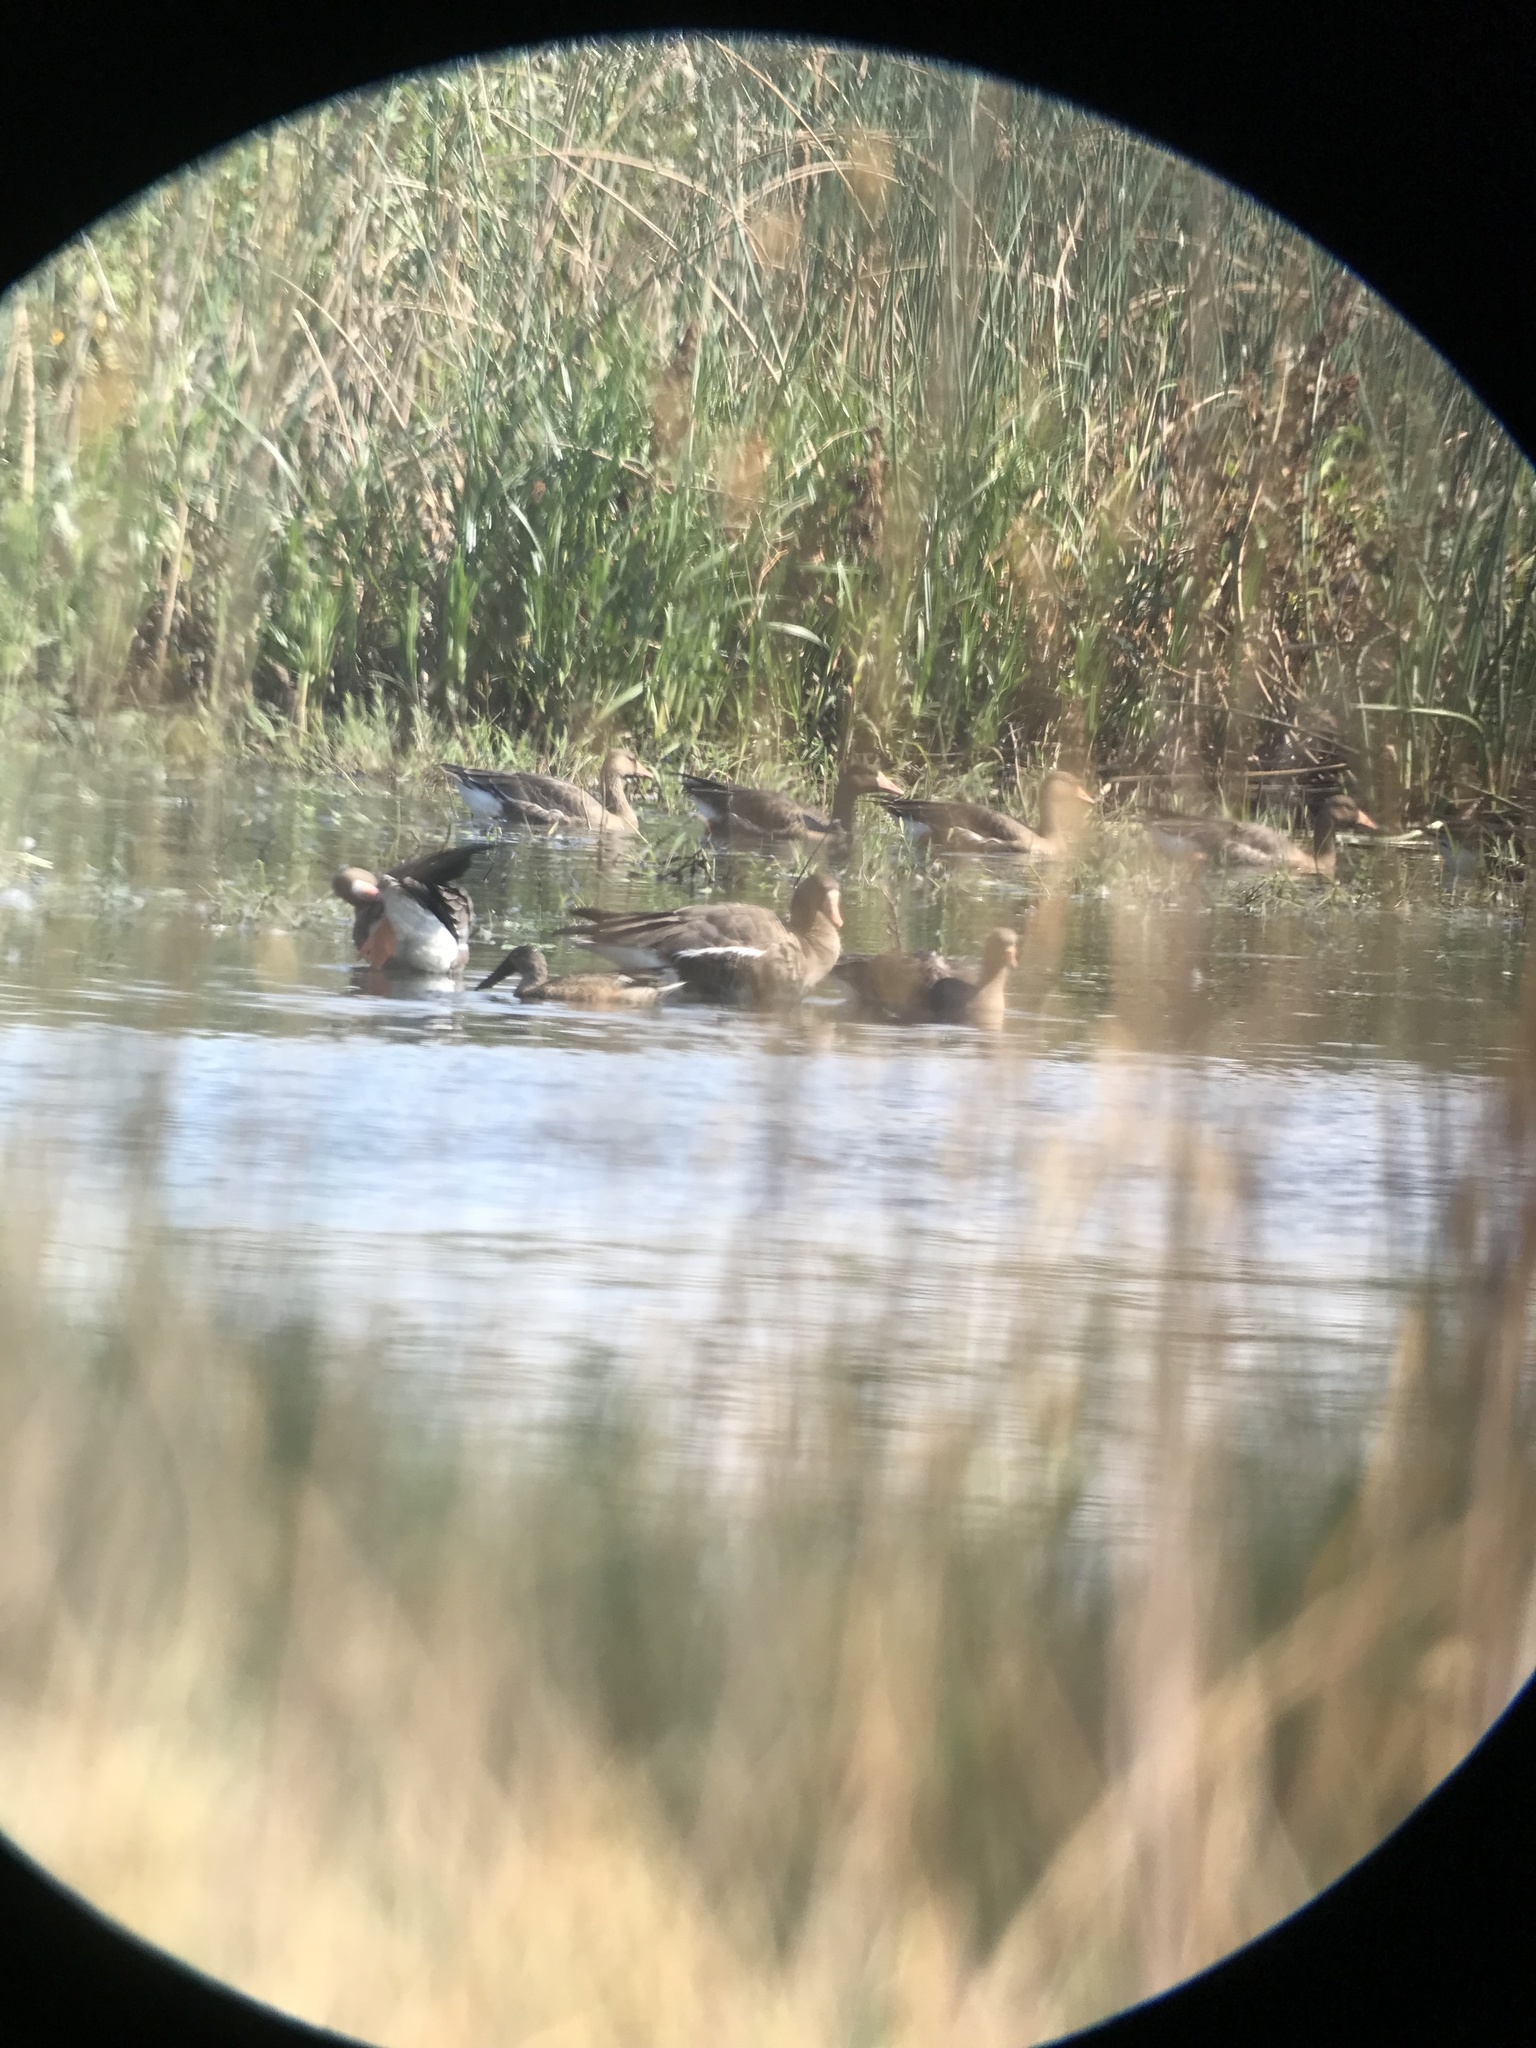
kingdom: Animalia
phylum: Chordata
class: Aves
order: Anseriformes
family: Anatidae
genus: Anser
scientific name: Anser albifrons
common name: Greater white-fronted goose
